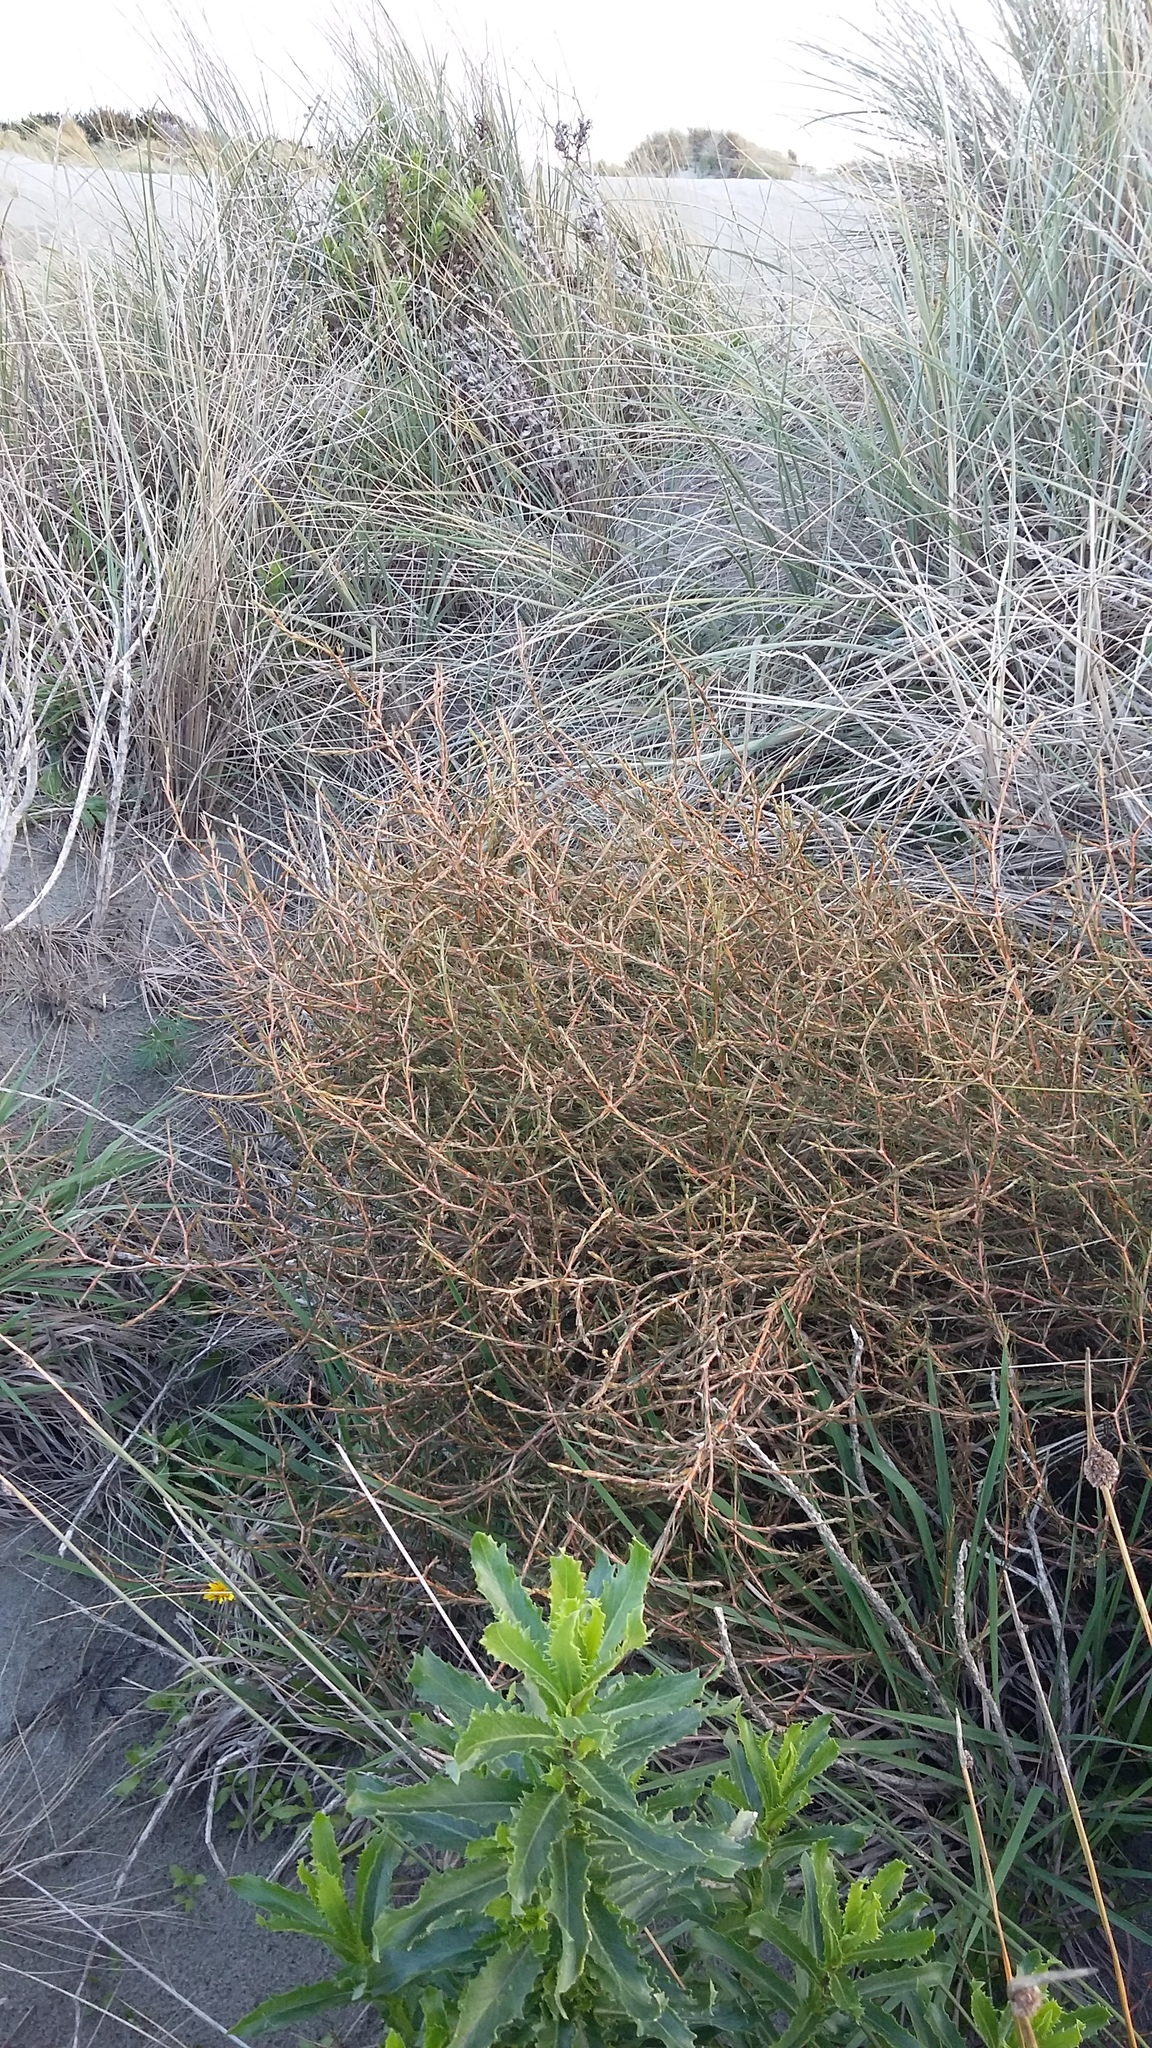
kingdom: Plantae
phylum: Tracheophyta
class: Magnoliopsida
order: Gentianales
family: Rubiaceae
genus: Coprosma
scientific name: Coprosma acerosa
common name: Sand coprosma
